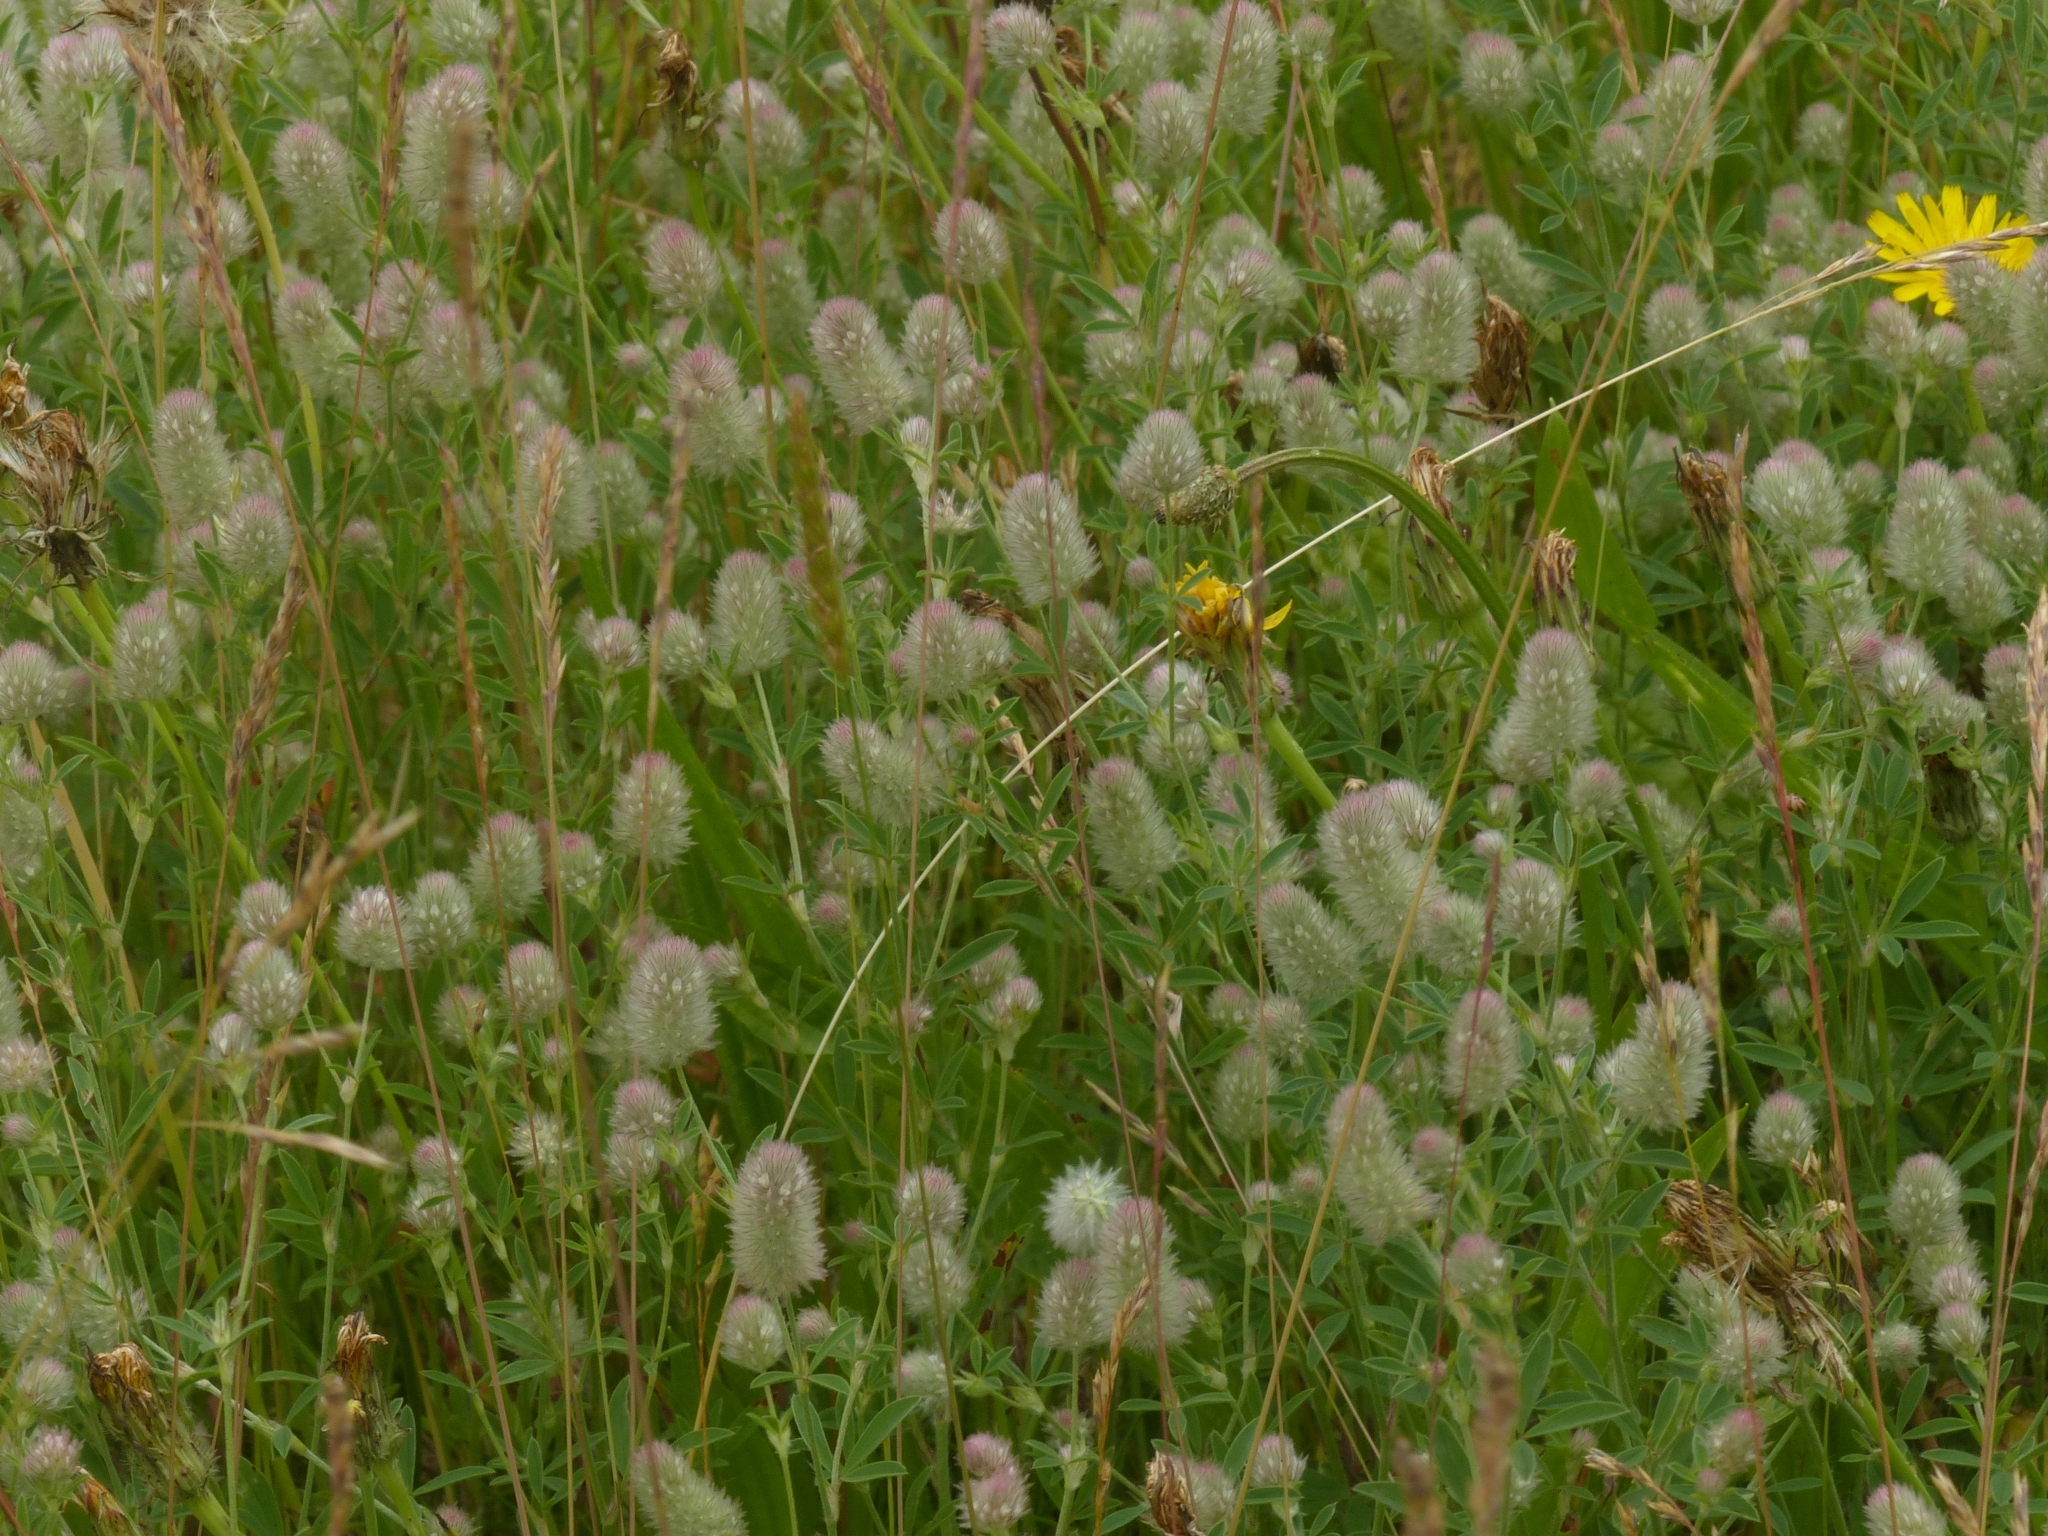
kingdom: Plantae
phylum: Tracheophyta
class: Magnoliopsida
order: Fabales
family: Fabaceae
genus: Trifolium
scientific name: Trifolium arvense
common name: Hare's-foot clover
